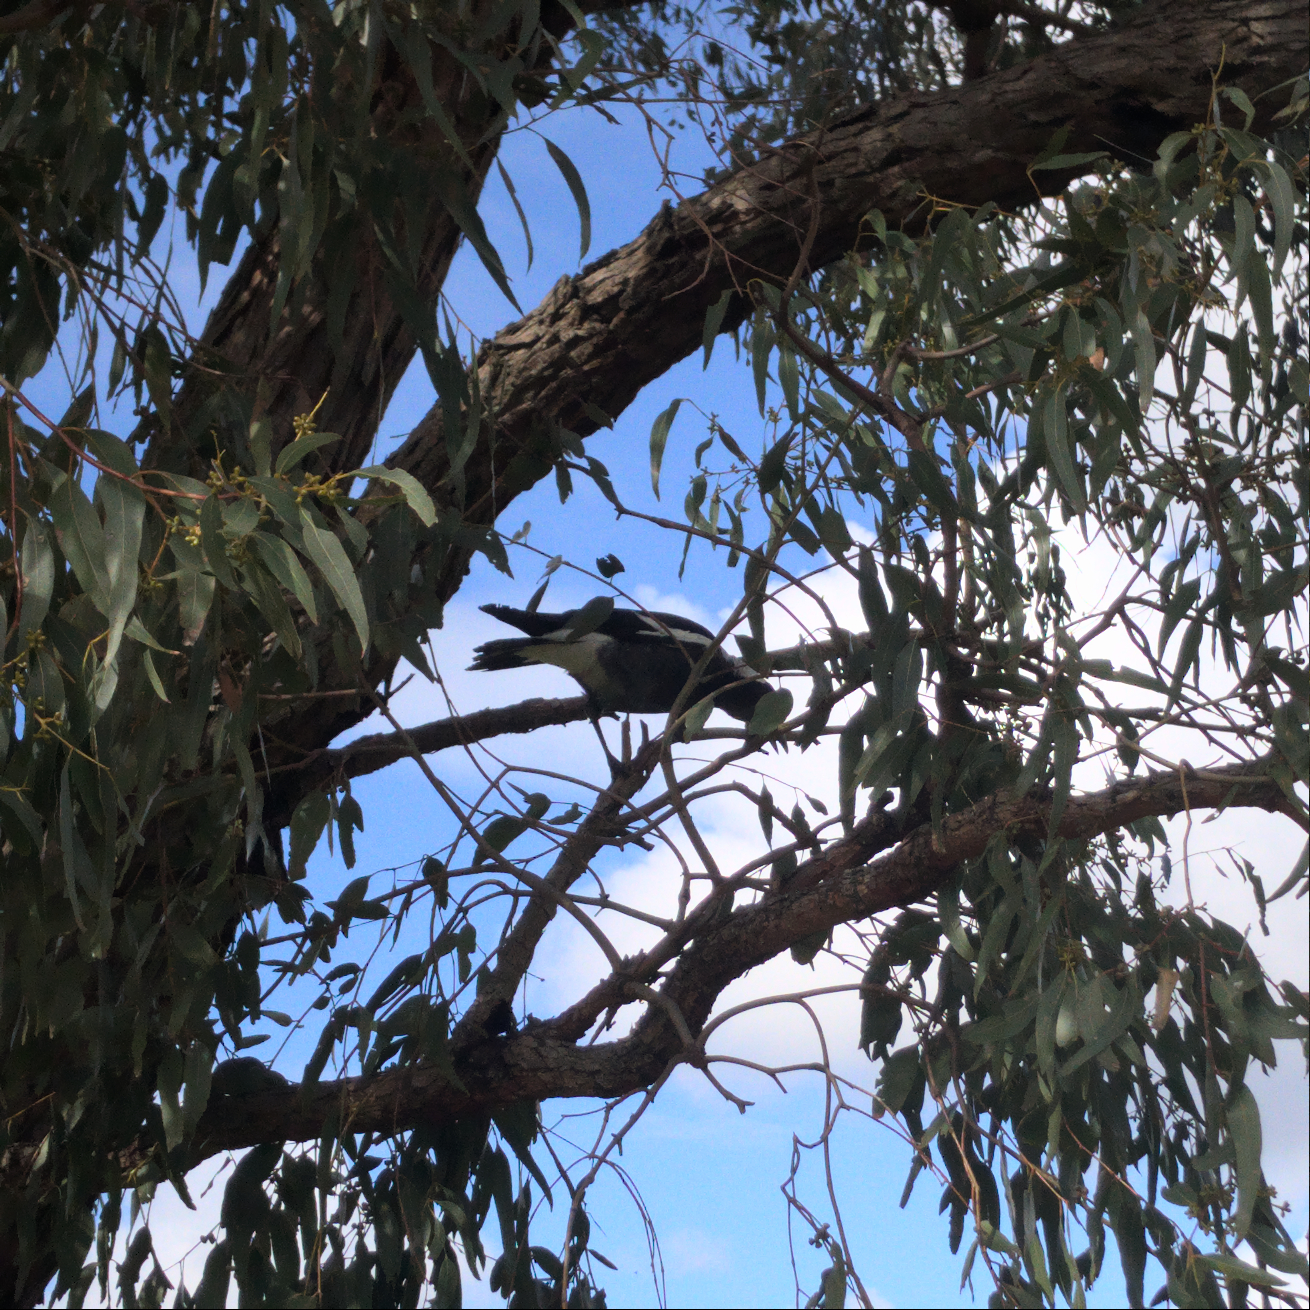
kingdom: Animalia
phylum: Chordata
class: Aves
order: Passeriformes
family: Cracticidae
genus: Gymnorhina
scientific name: Gymnorhina tibicen
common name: Australian magpie
